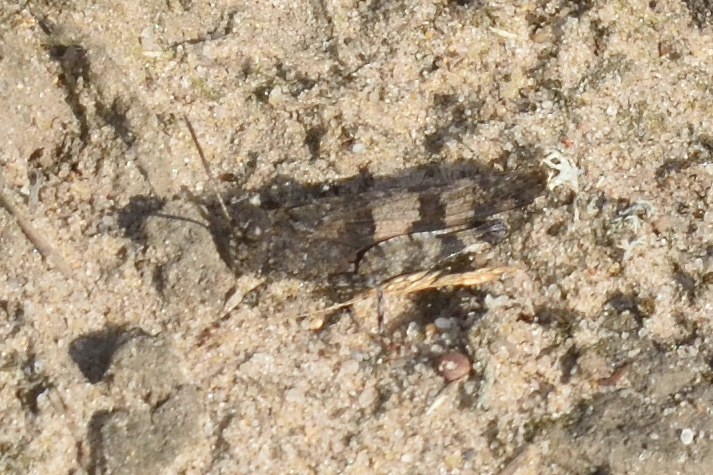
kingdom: Animalia
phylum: Arthropoda
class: Insecta
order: Orthoptera
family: Acrididae
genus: Oedipoda
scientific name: Oedipoda caerulescens
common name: Blue-winged grasshopper
